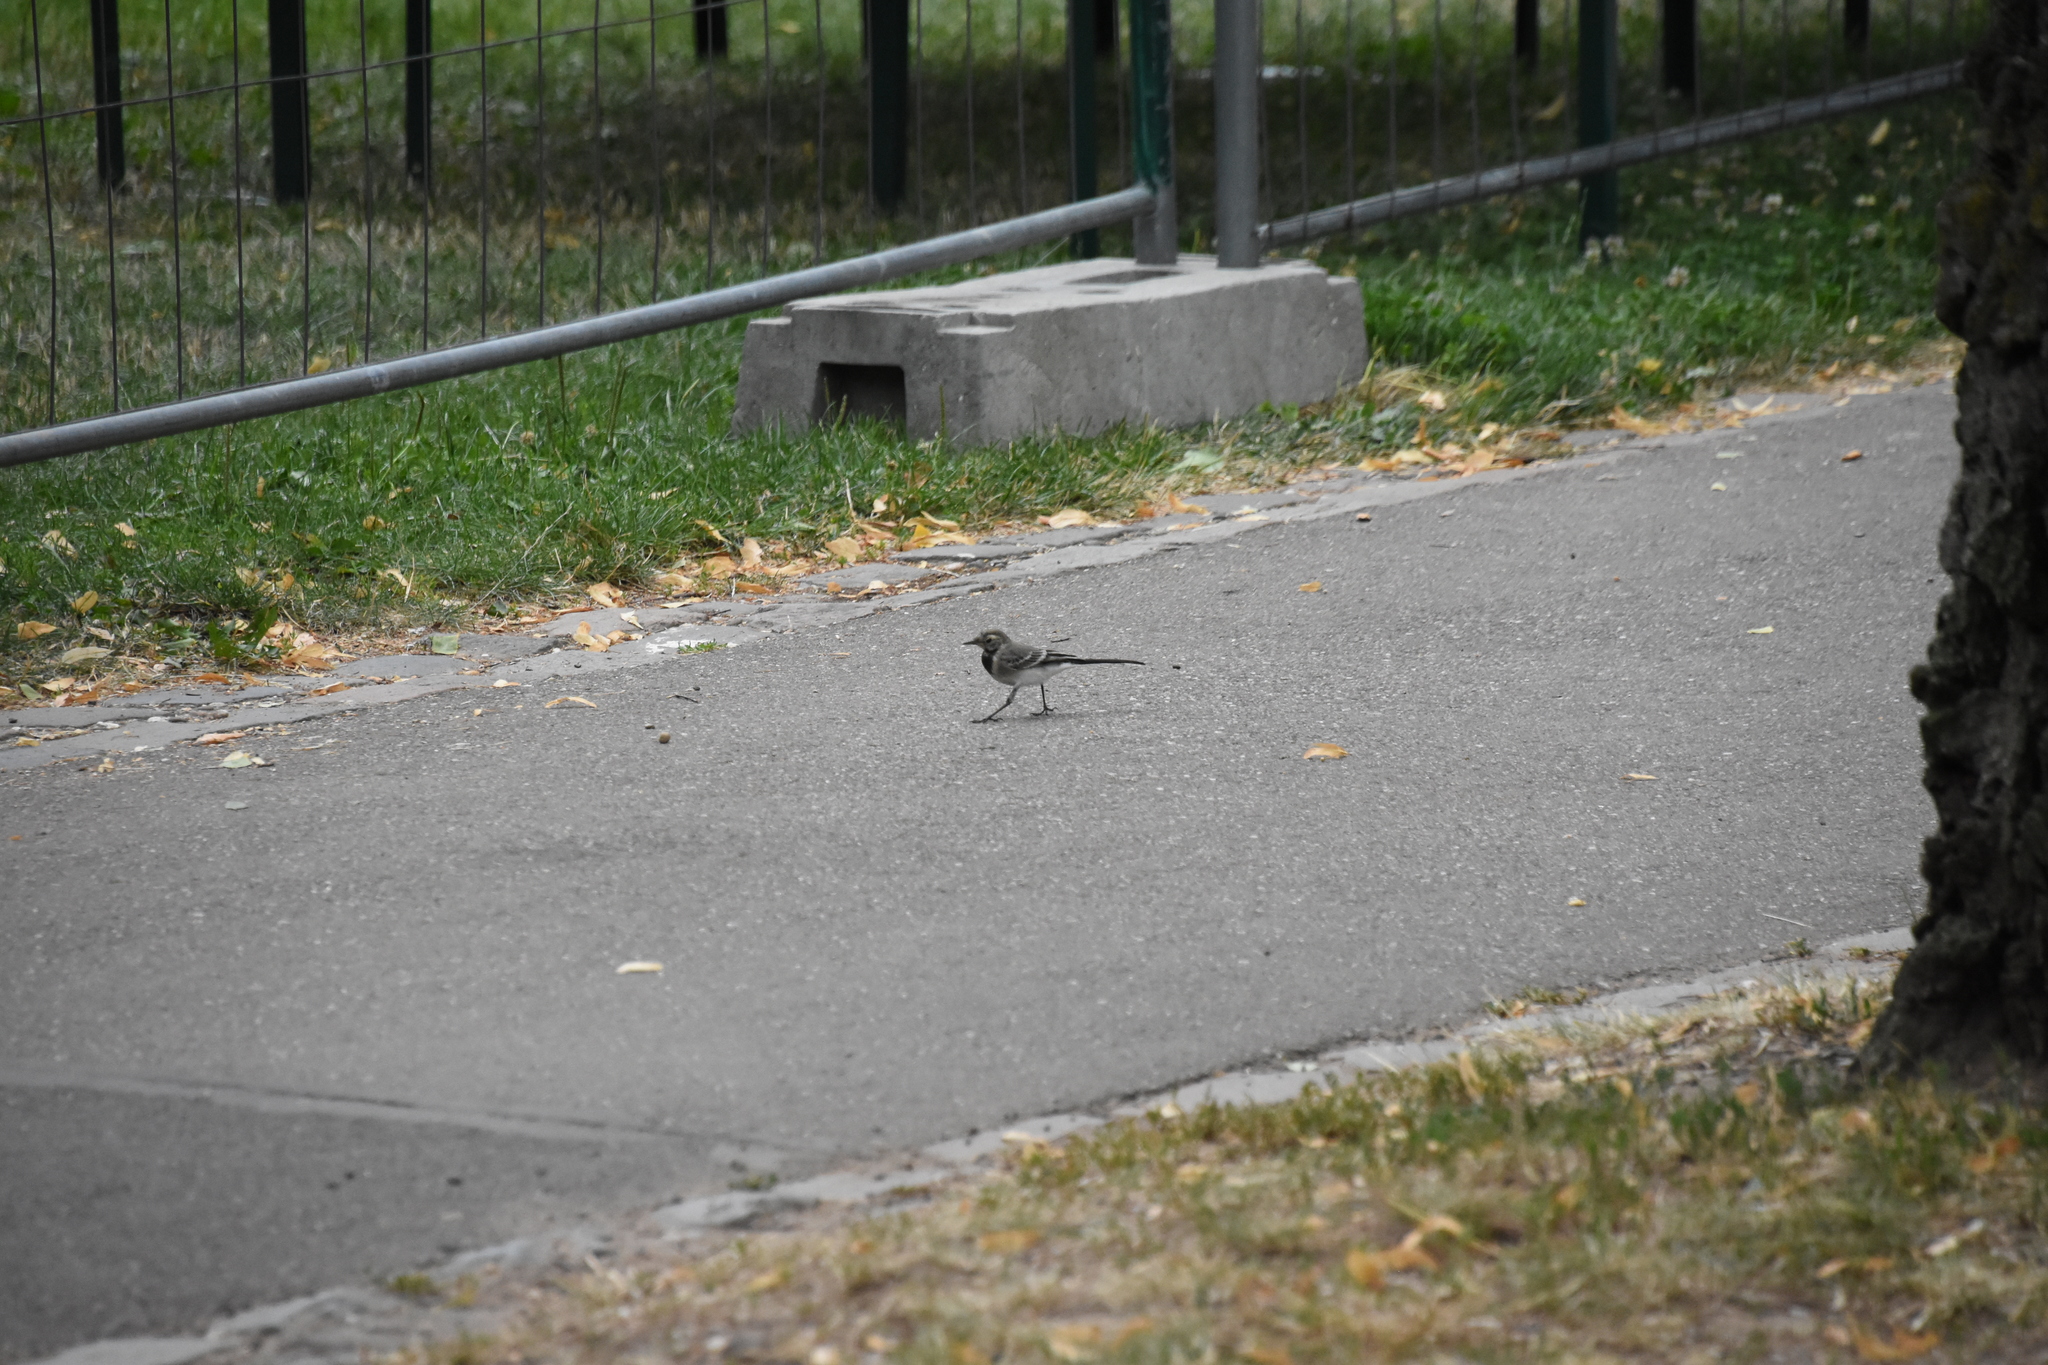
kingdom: Animalia
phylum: Chordata
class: Aves
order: Passeriformes
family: Motacillidae
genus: Motacilla
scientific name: Motacilla alba
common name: White wagtail
